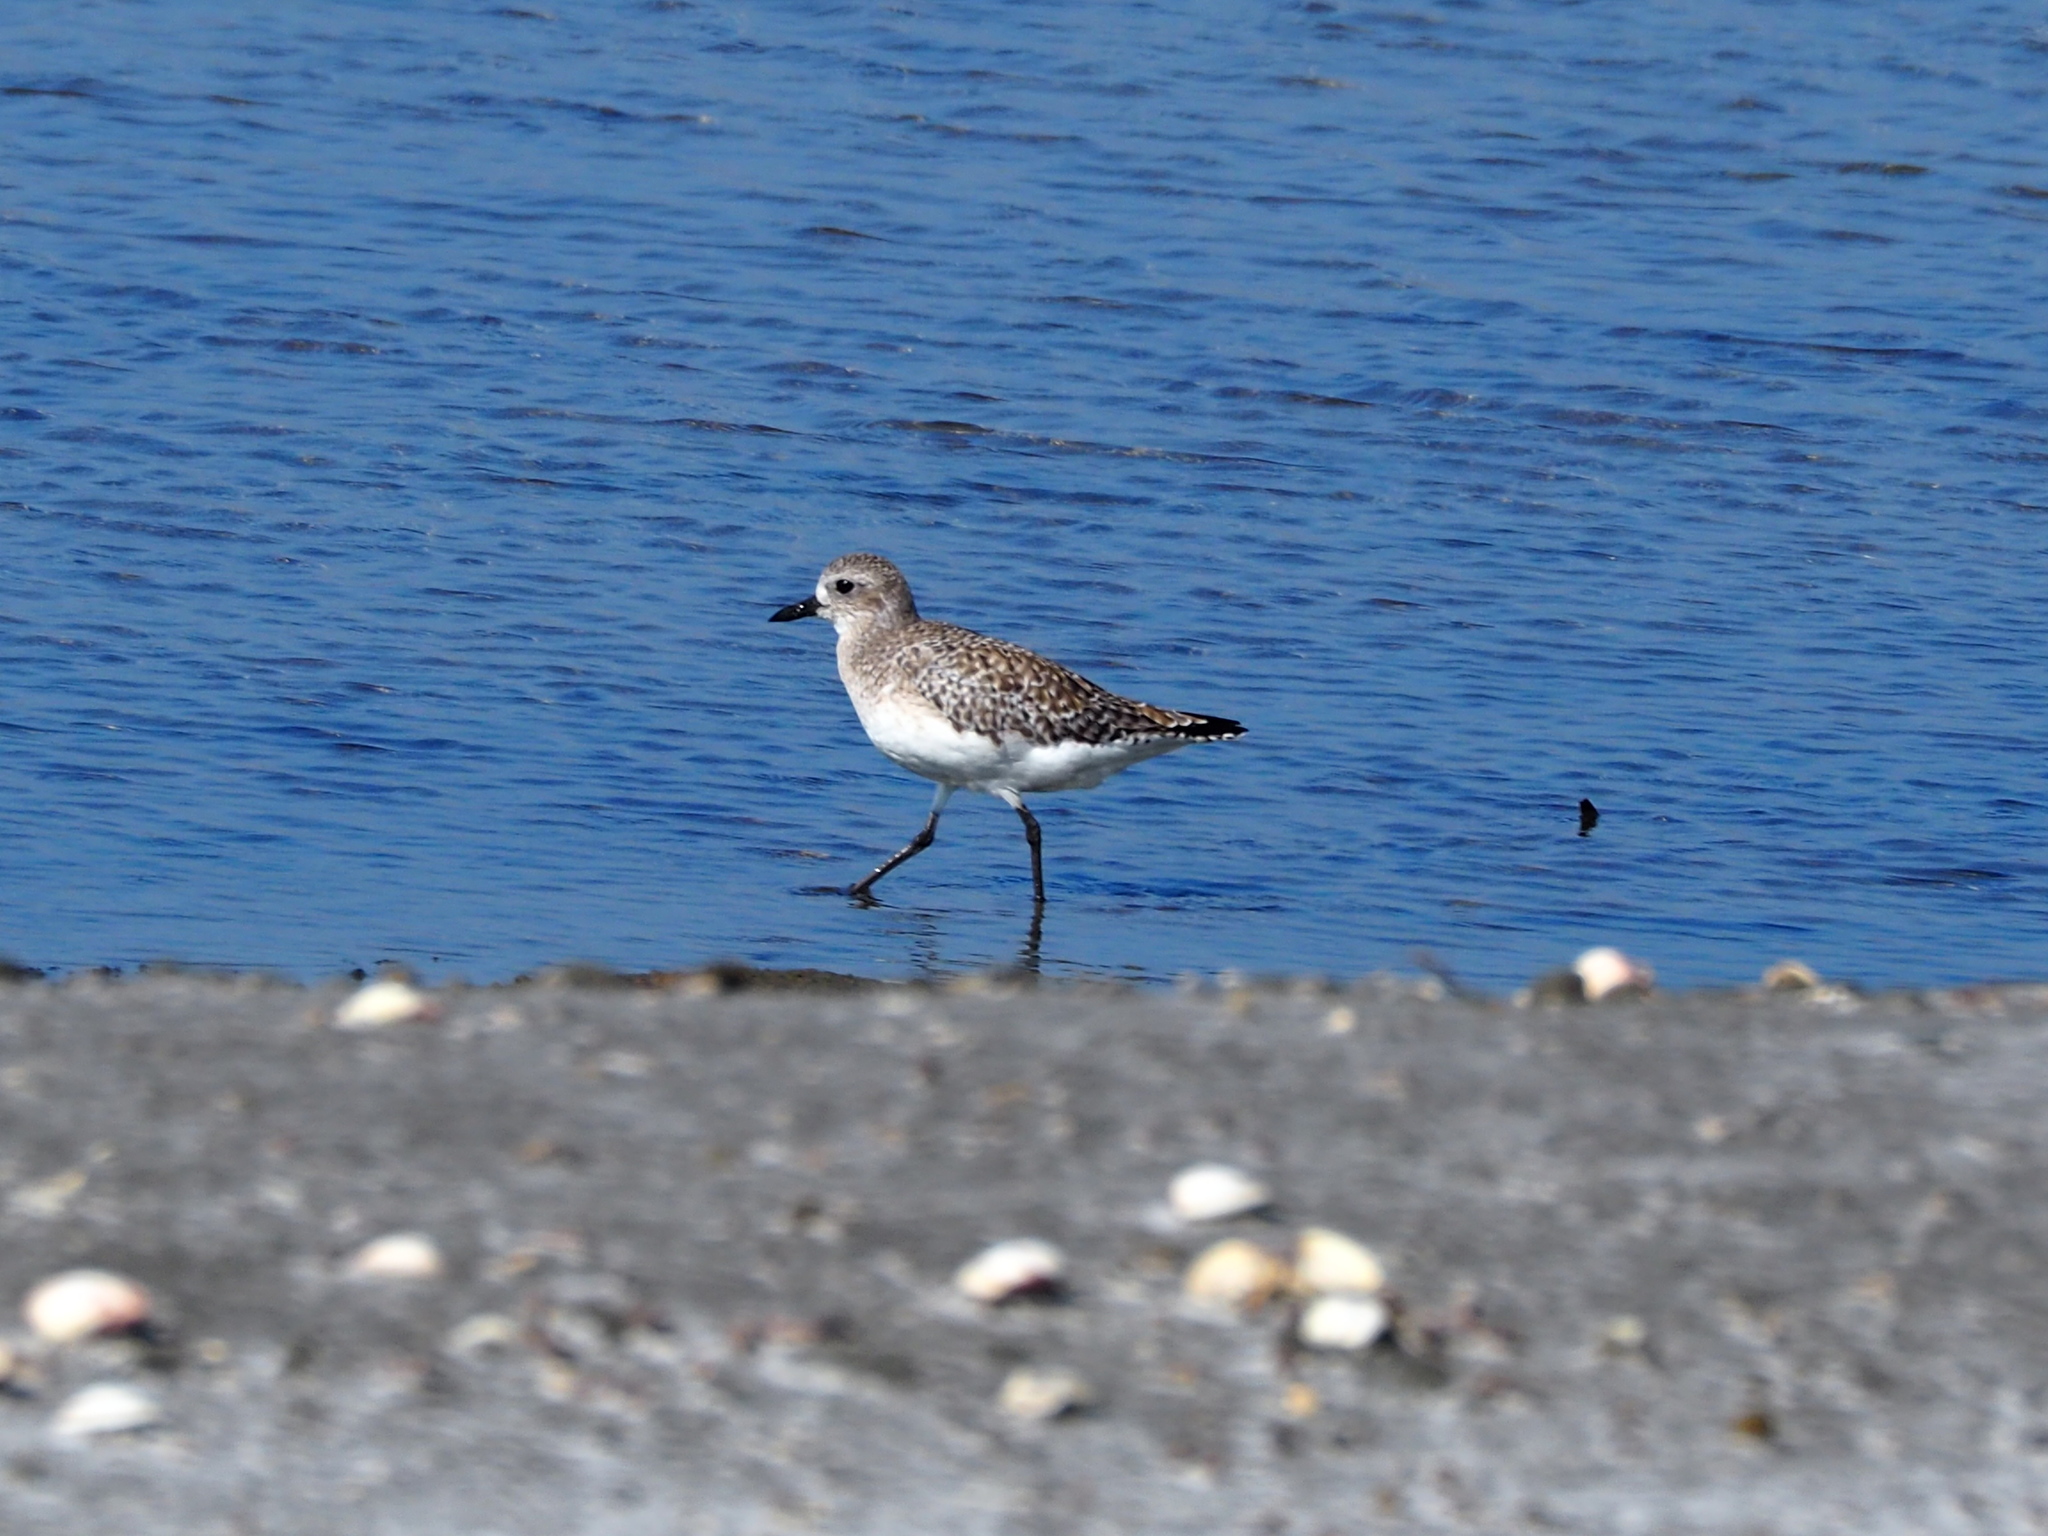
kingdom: Animalia
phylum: Chordata
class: Aves
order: Charadriiformes
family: Charadriidae
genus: Pluvialis
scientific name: Pluvialis squatarola
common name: Grey plover
